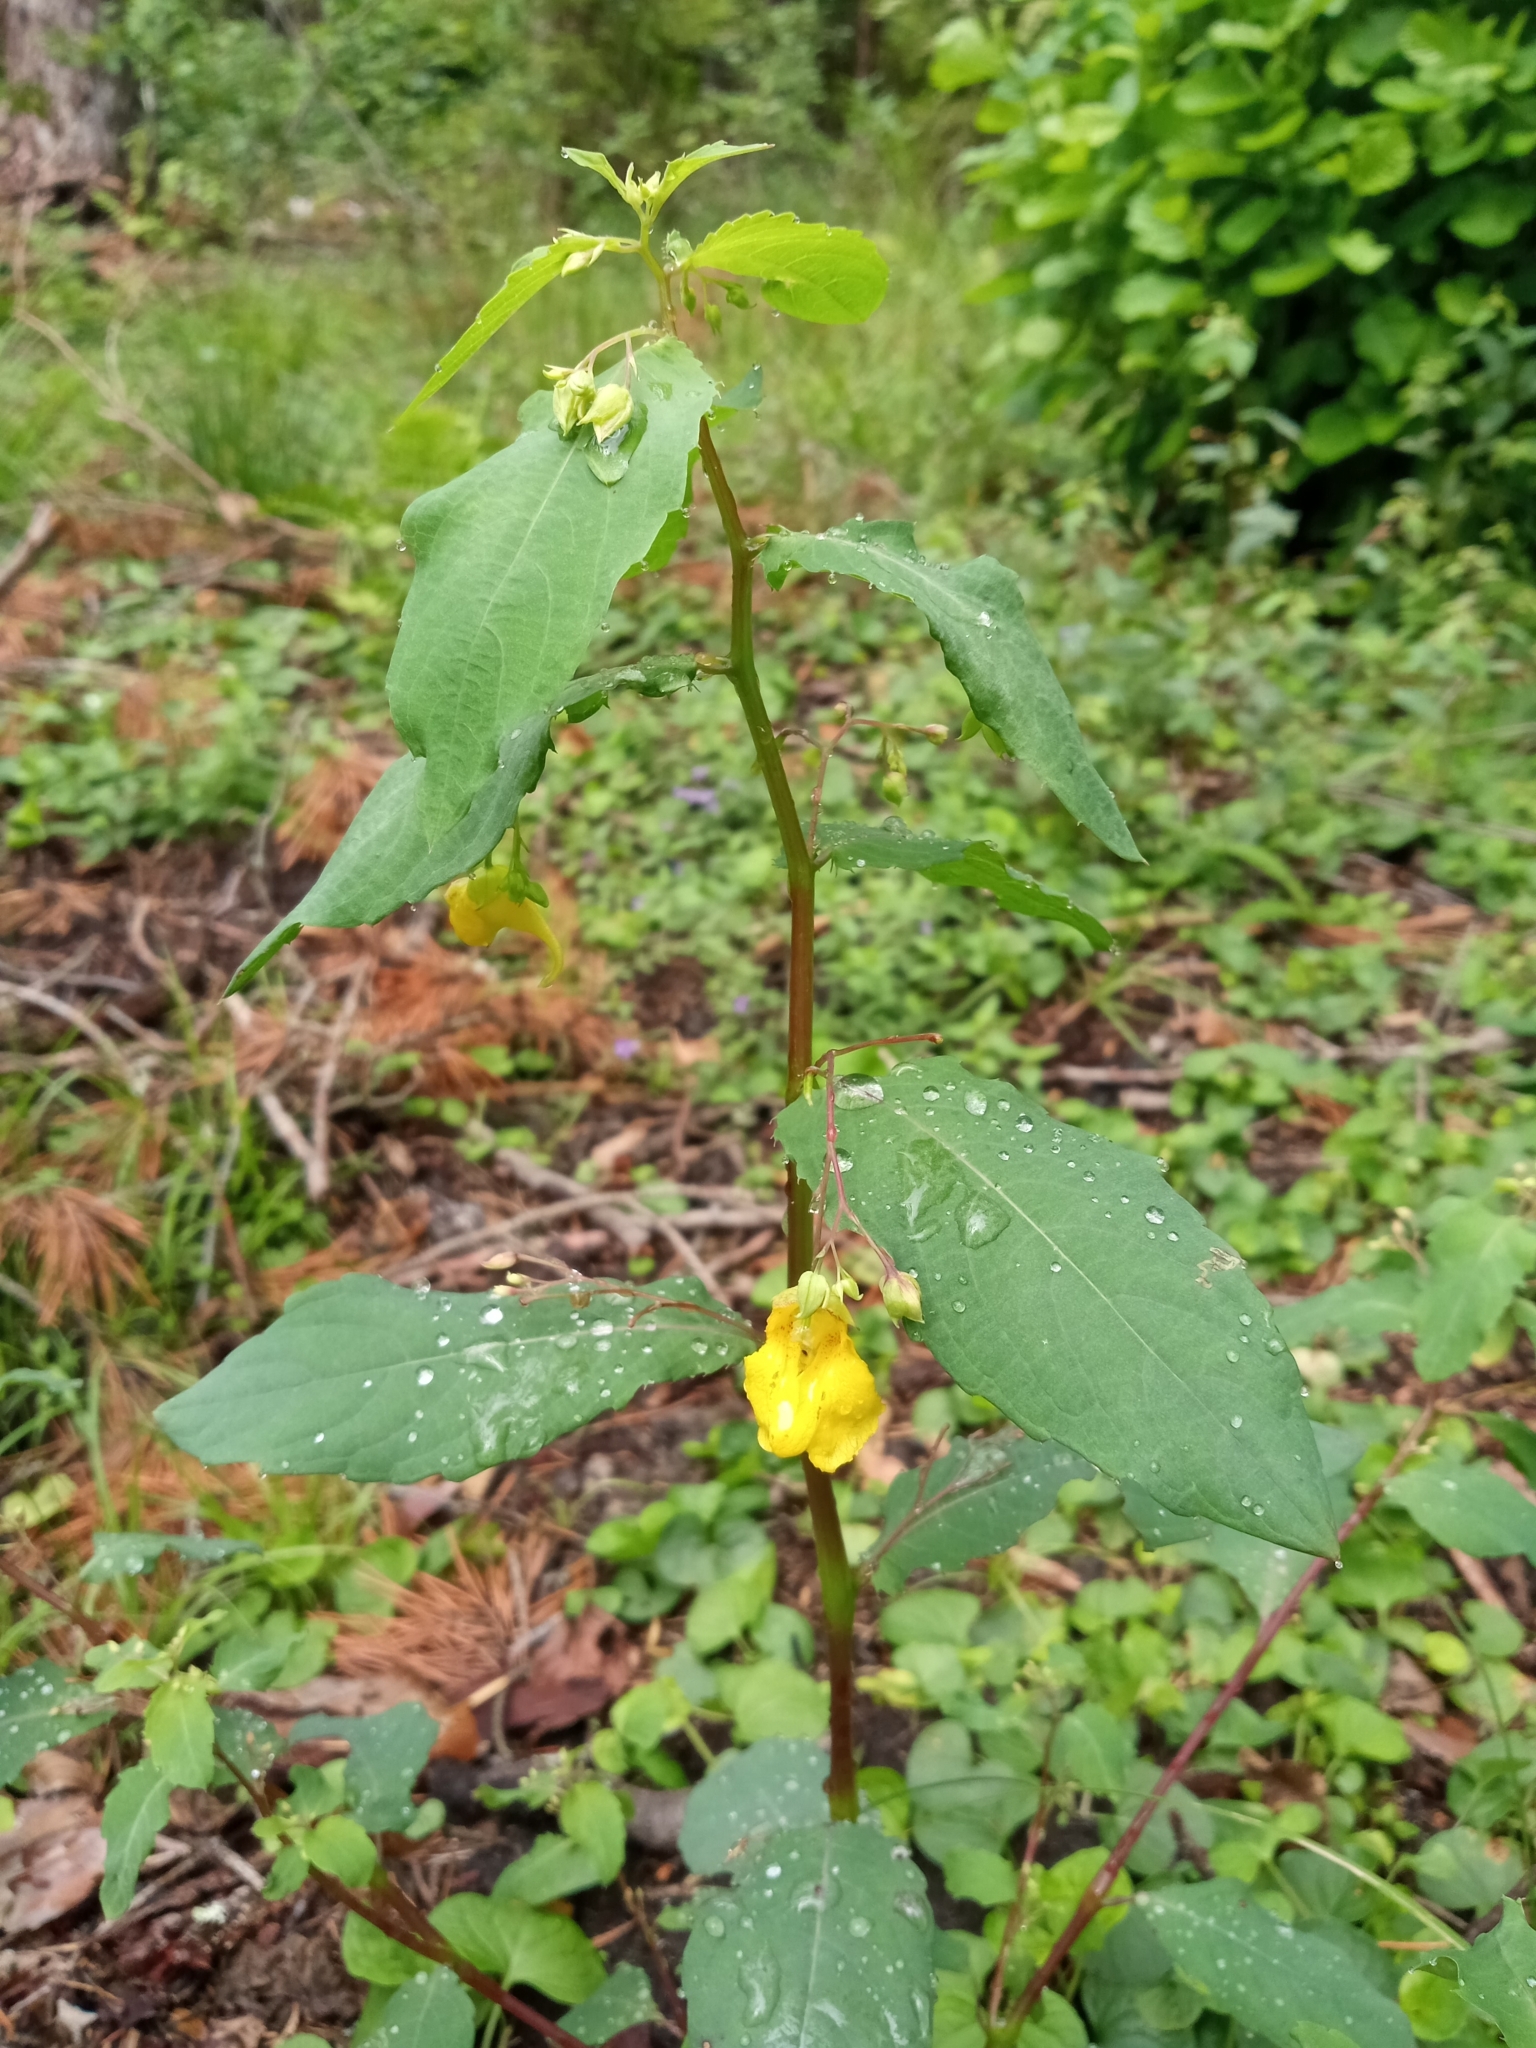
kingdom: Plantae
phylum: Tracheophyta
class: Magnoliopsida
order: Ericales
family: Balsaminaceae
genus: Impatiens
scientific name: Impatiens noli-tangere
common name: Touch-me-not balsam
